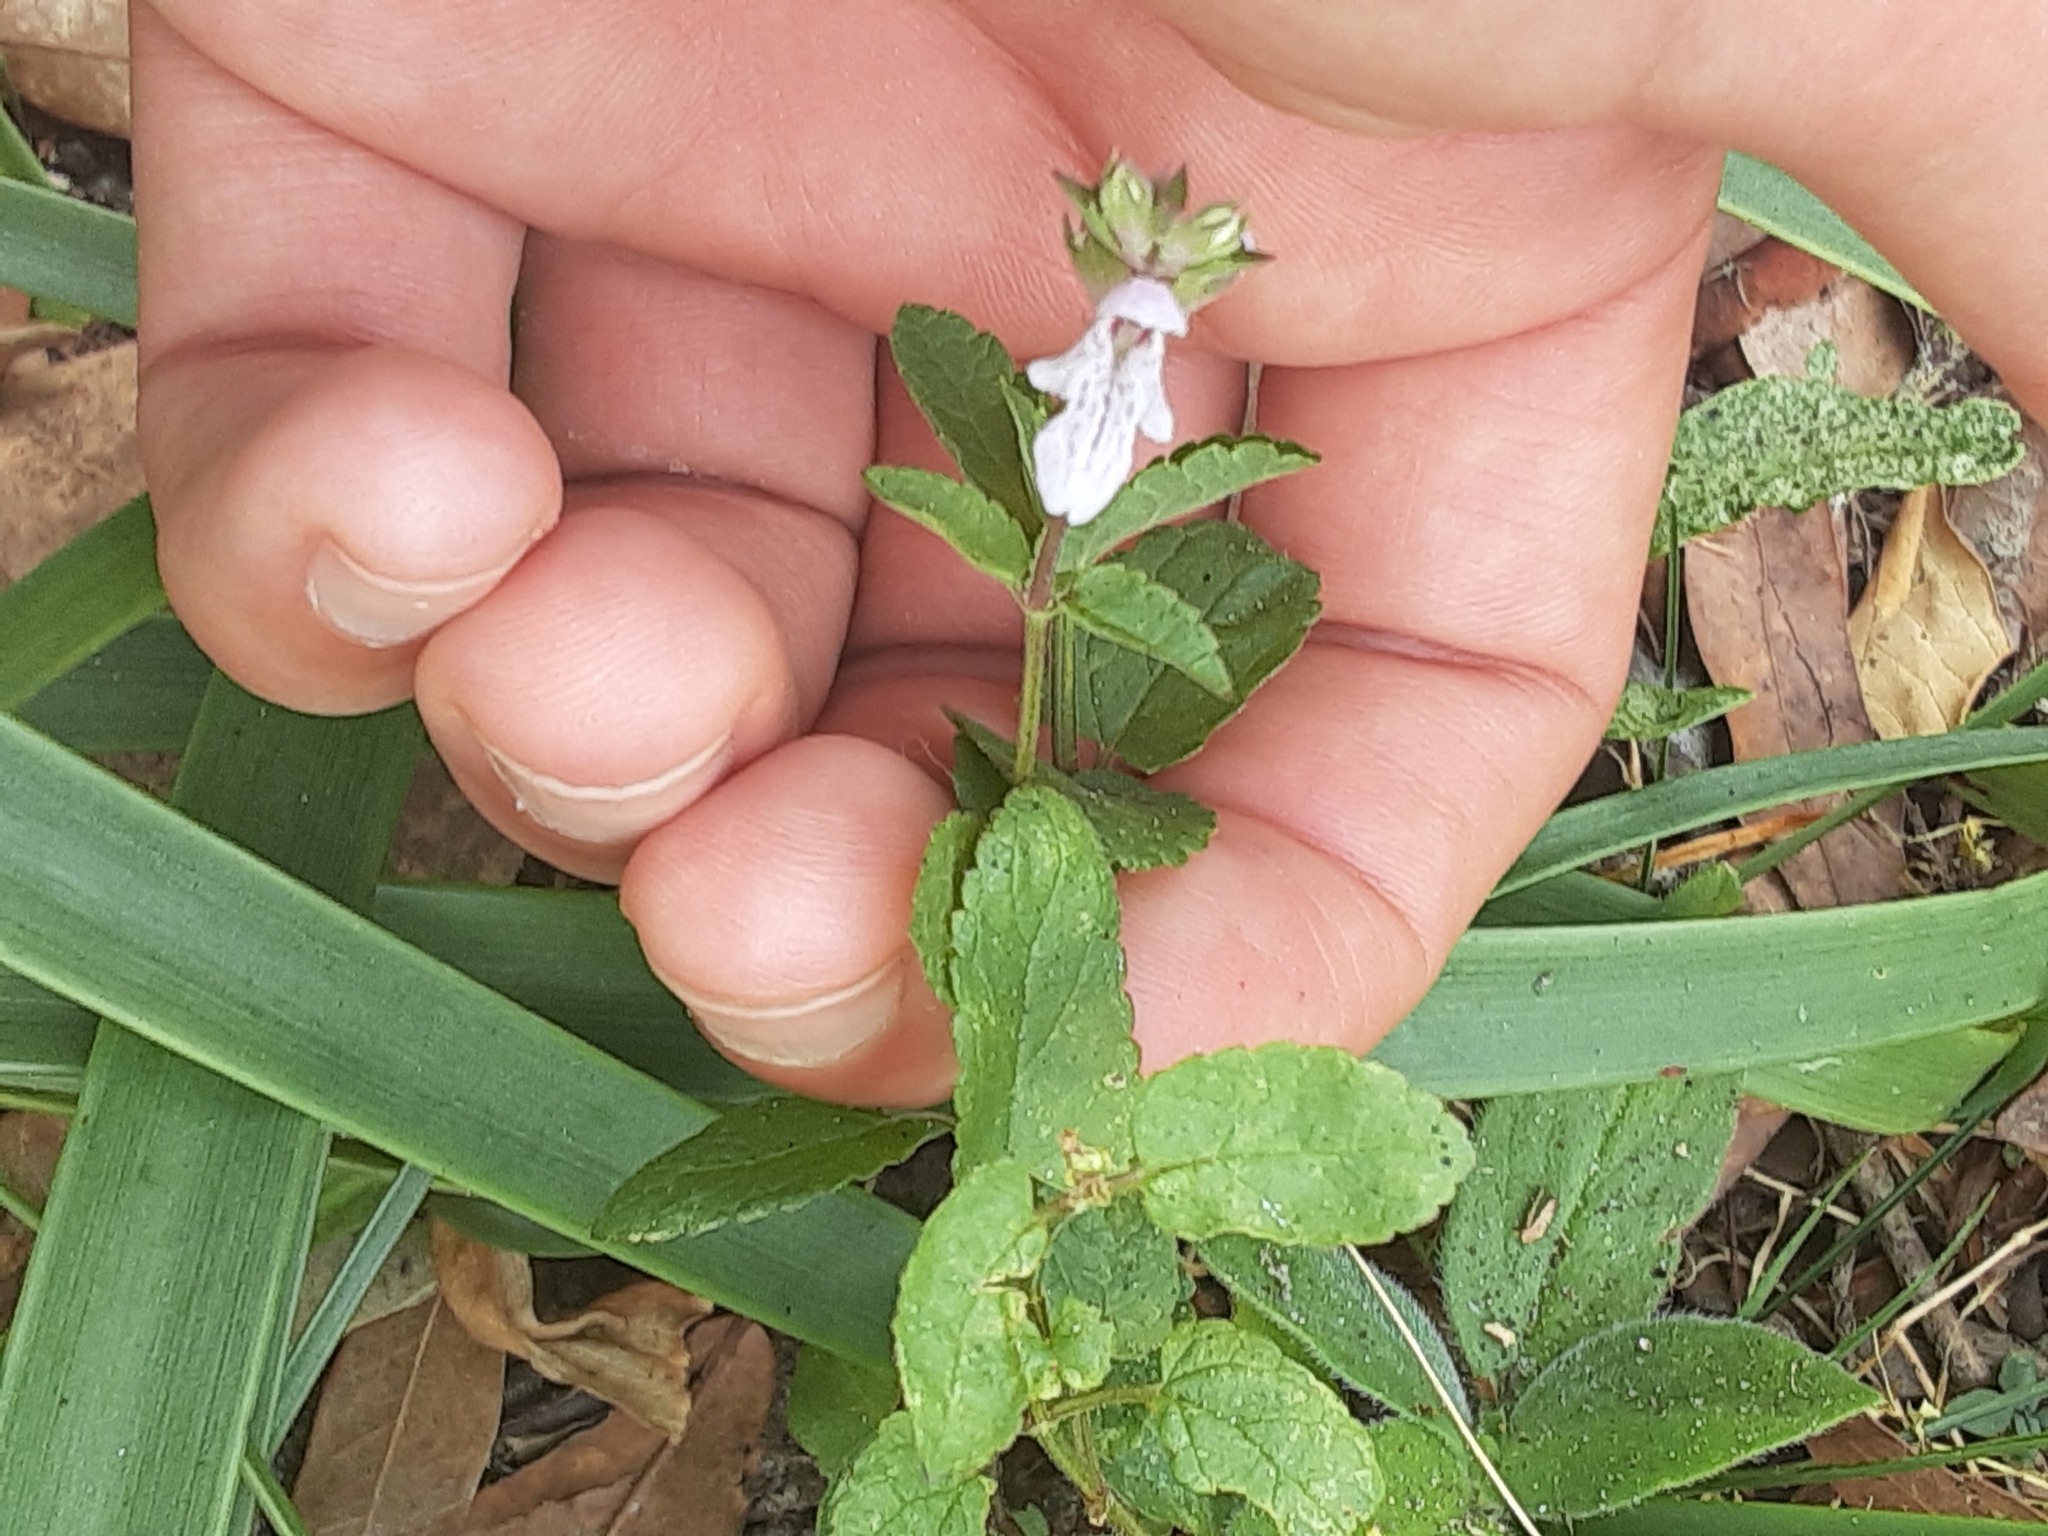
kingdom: Plantae
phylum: Tracheophyta
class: Magnoliopsida
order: Lamiales
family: Lamiaceae
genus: Stachys
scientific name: Stachys floridana
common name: Florida betony
